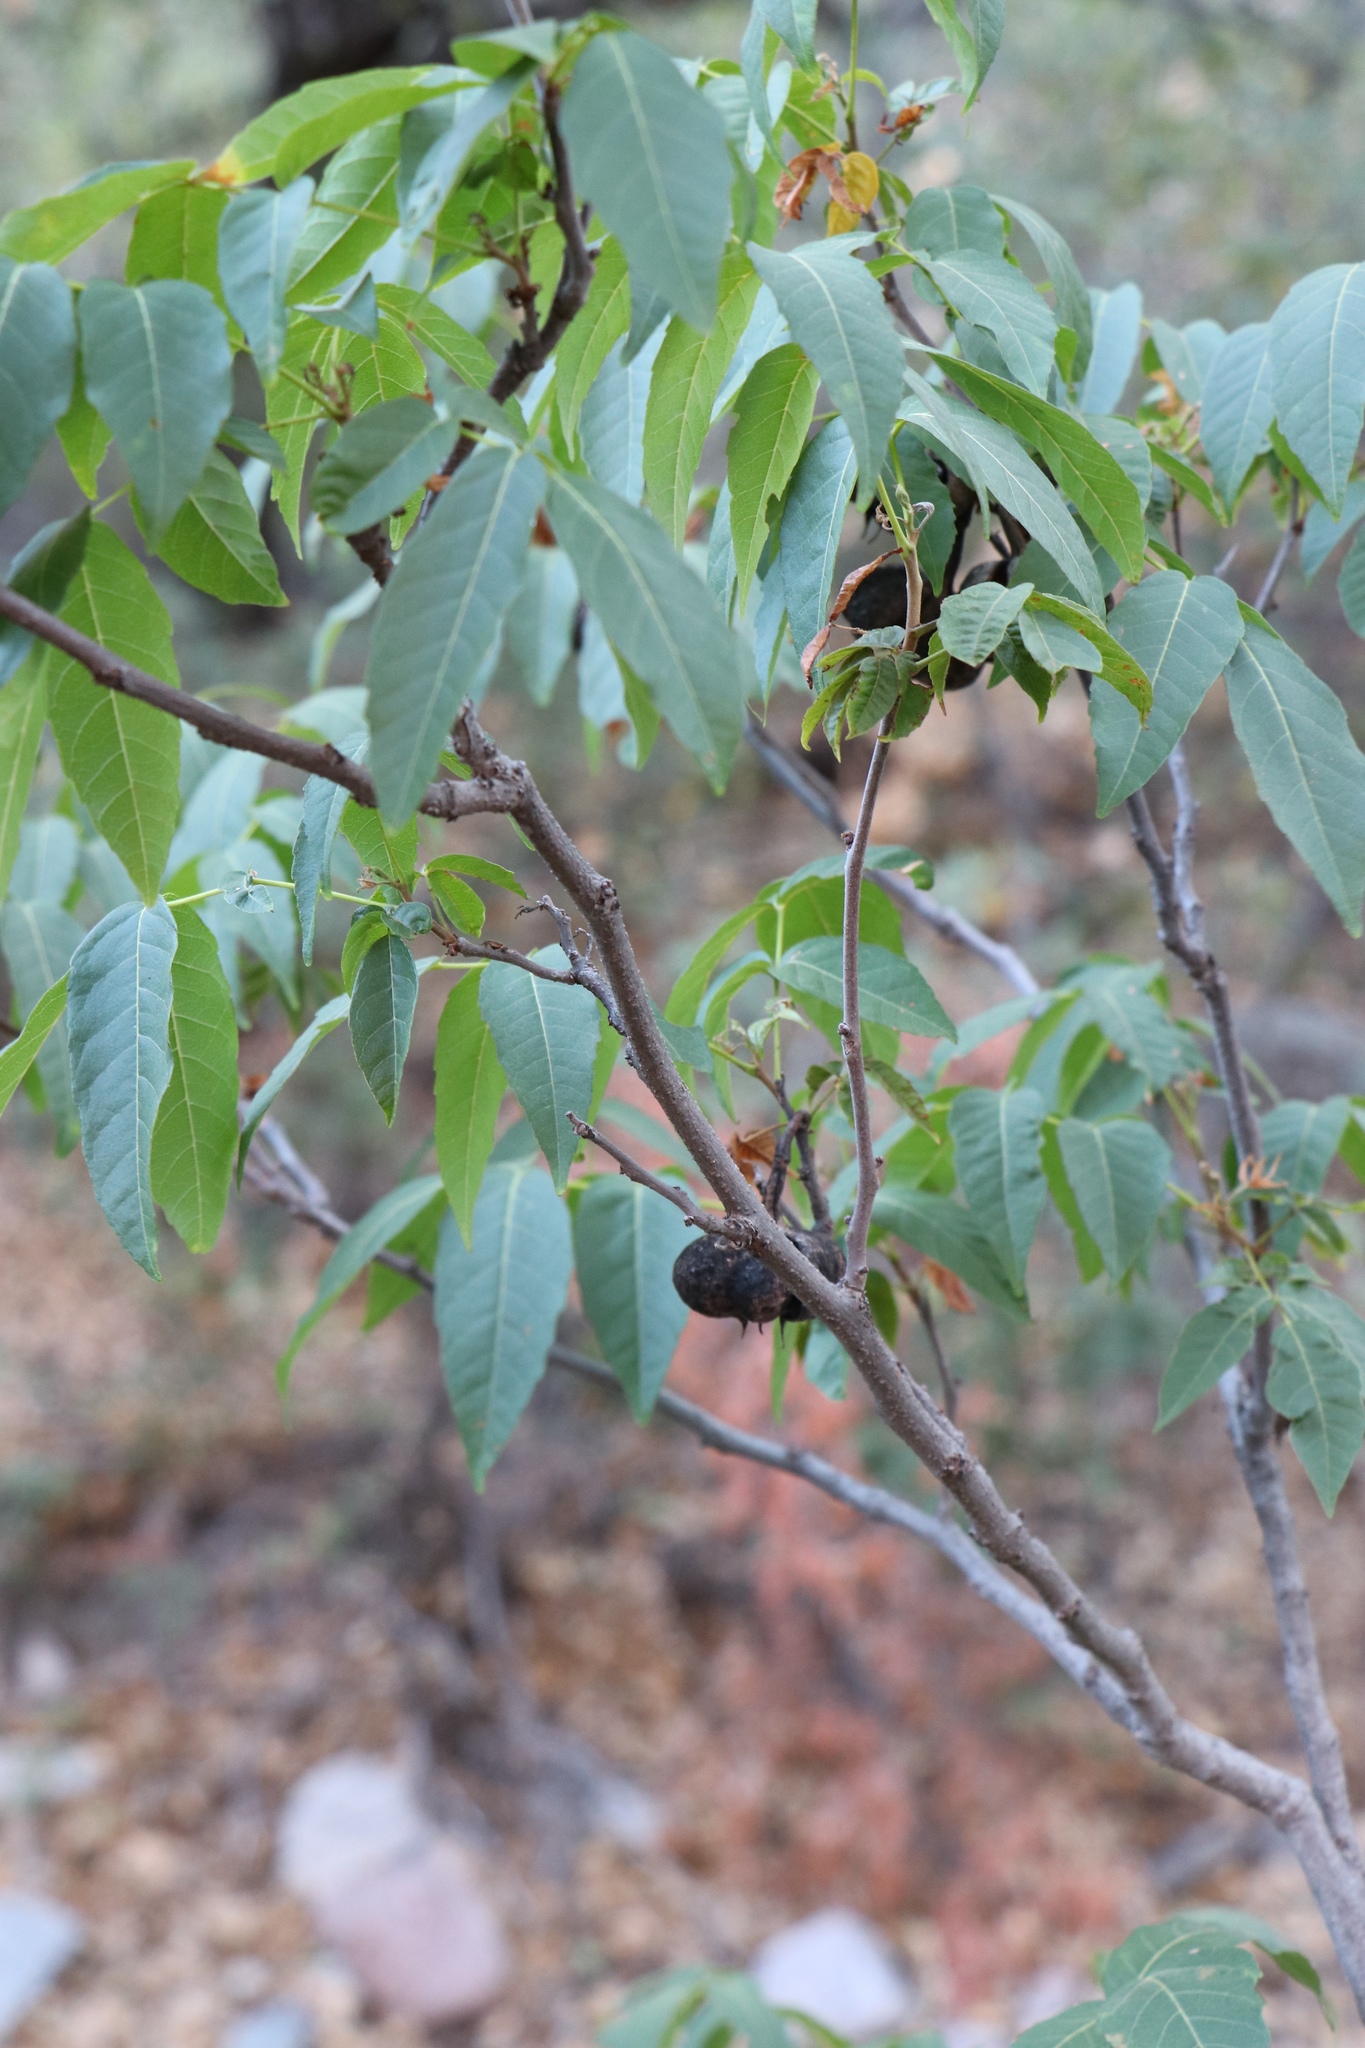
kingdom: Plantae
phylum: Tracheophyta
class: Magnoliopsida
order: Sapindales
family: Sapindaceae
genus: Ungnadia
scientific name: Ungnadia speciosa
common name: Texas-buckeye
